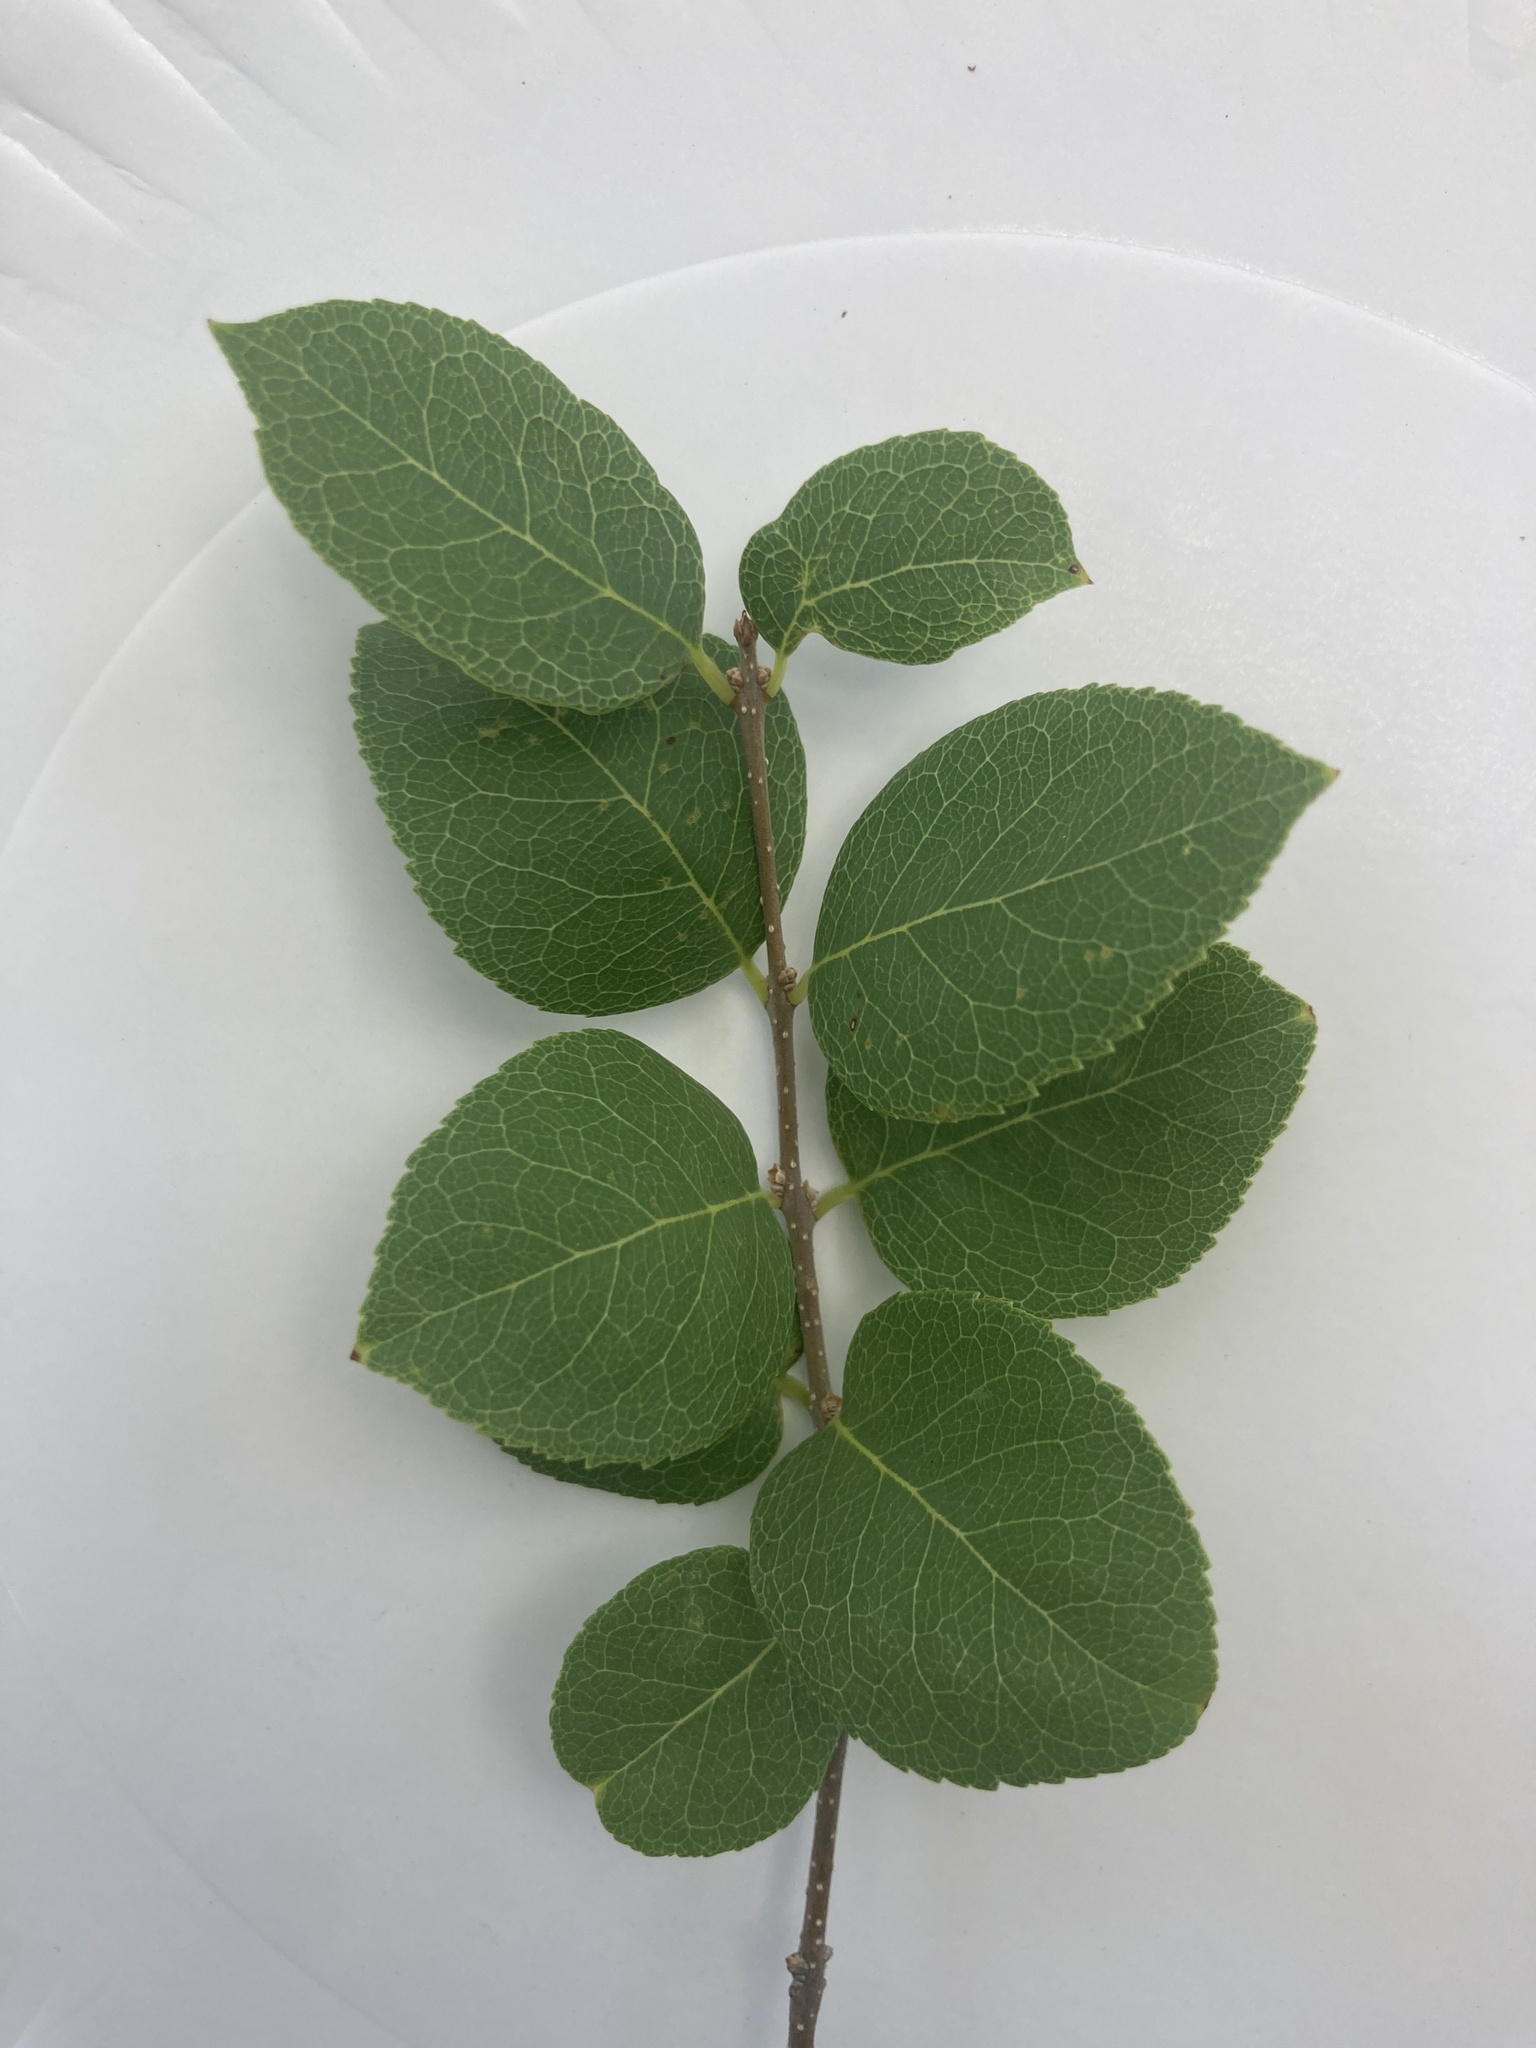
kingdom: Plantae
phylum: Tracheophyta
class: Magnoliopsida
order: Lamiales
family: Oleaceae
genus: Forestiera
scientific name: Forestiera reticulata
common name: Netleaf swamp-privet
